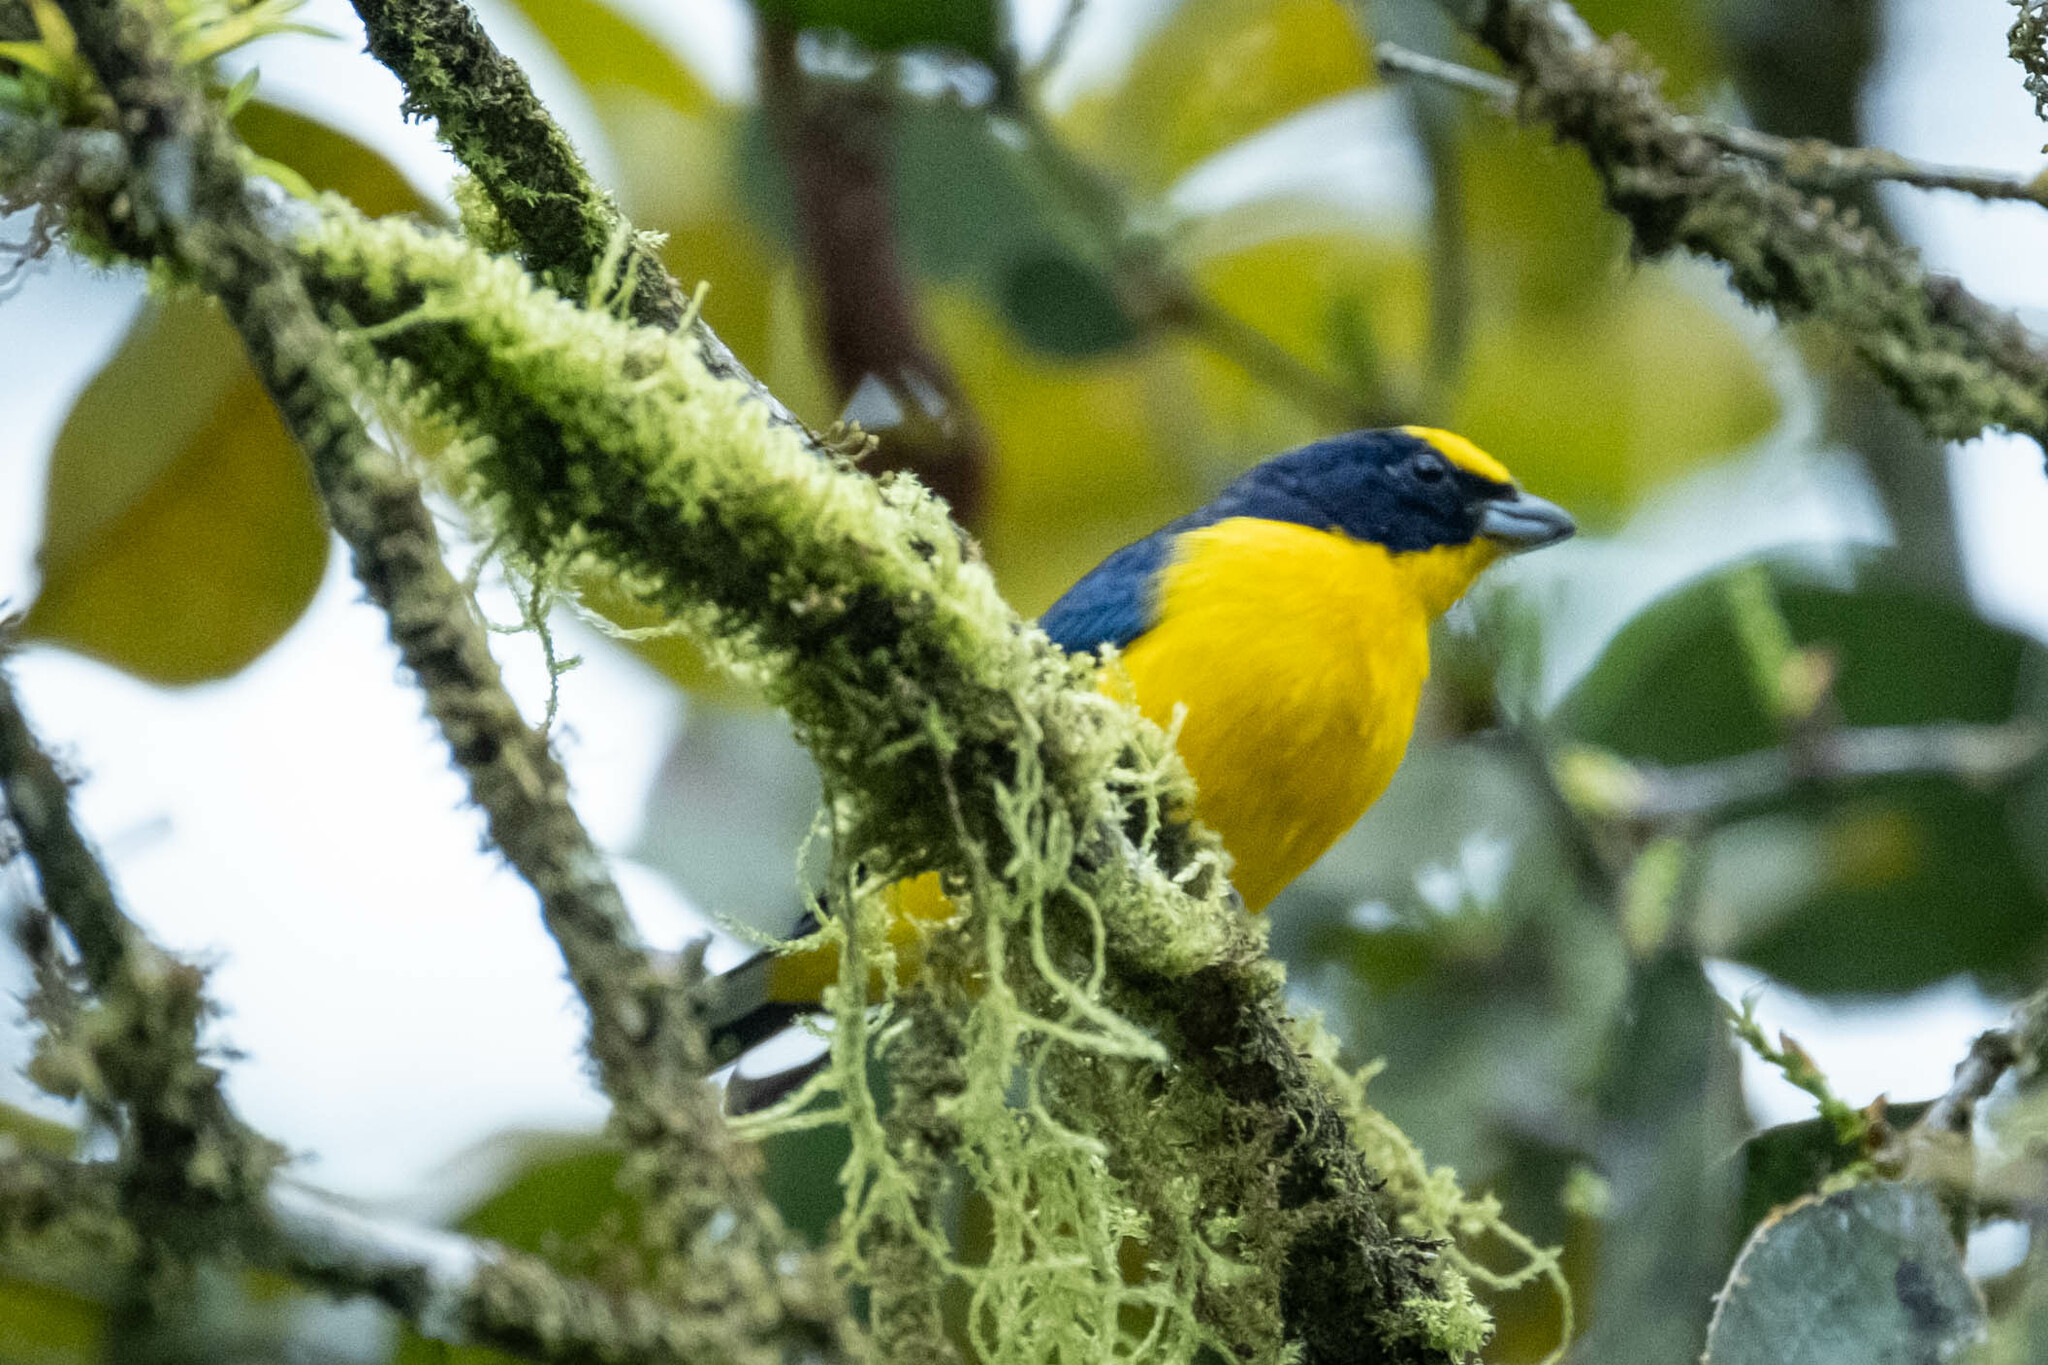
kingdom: Animalia
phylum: Chordata
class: Aves
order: Passeriformes
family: Fringillidae
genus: Euphonia
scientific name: Euphonia laniirostris
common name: Thick-billed euphonia
